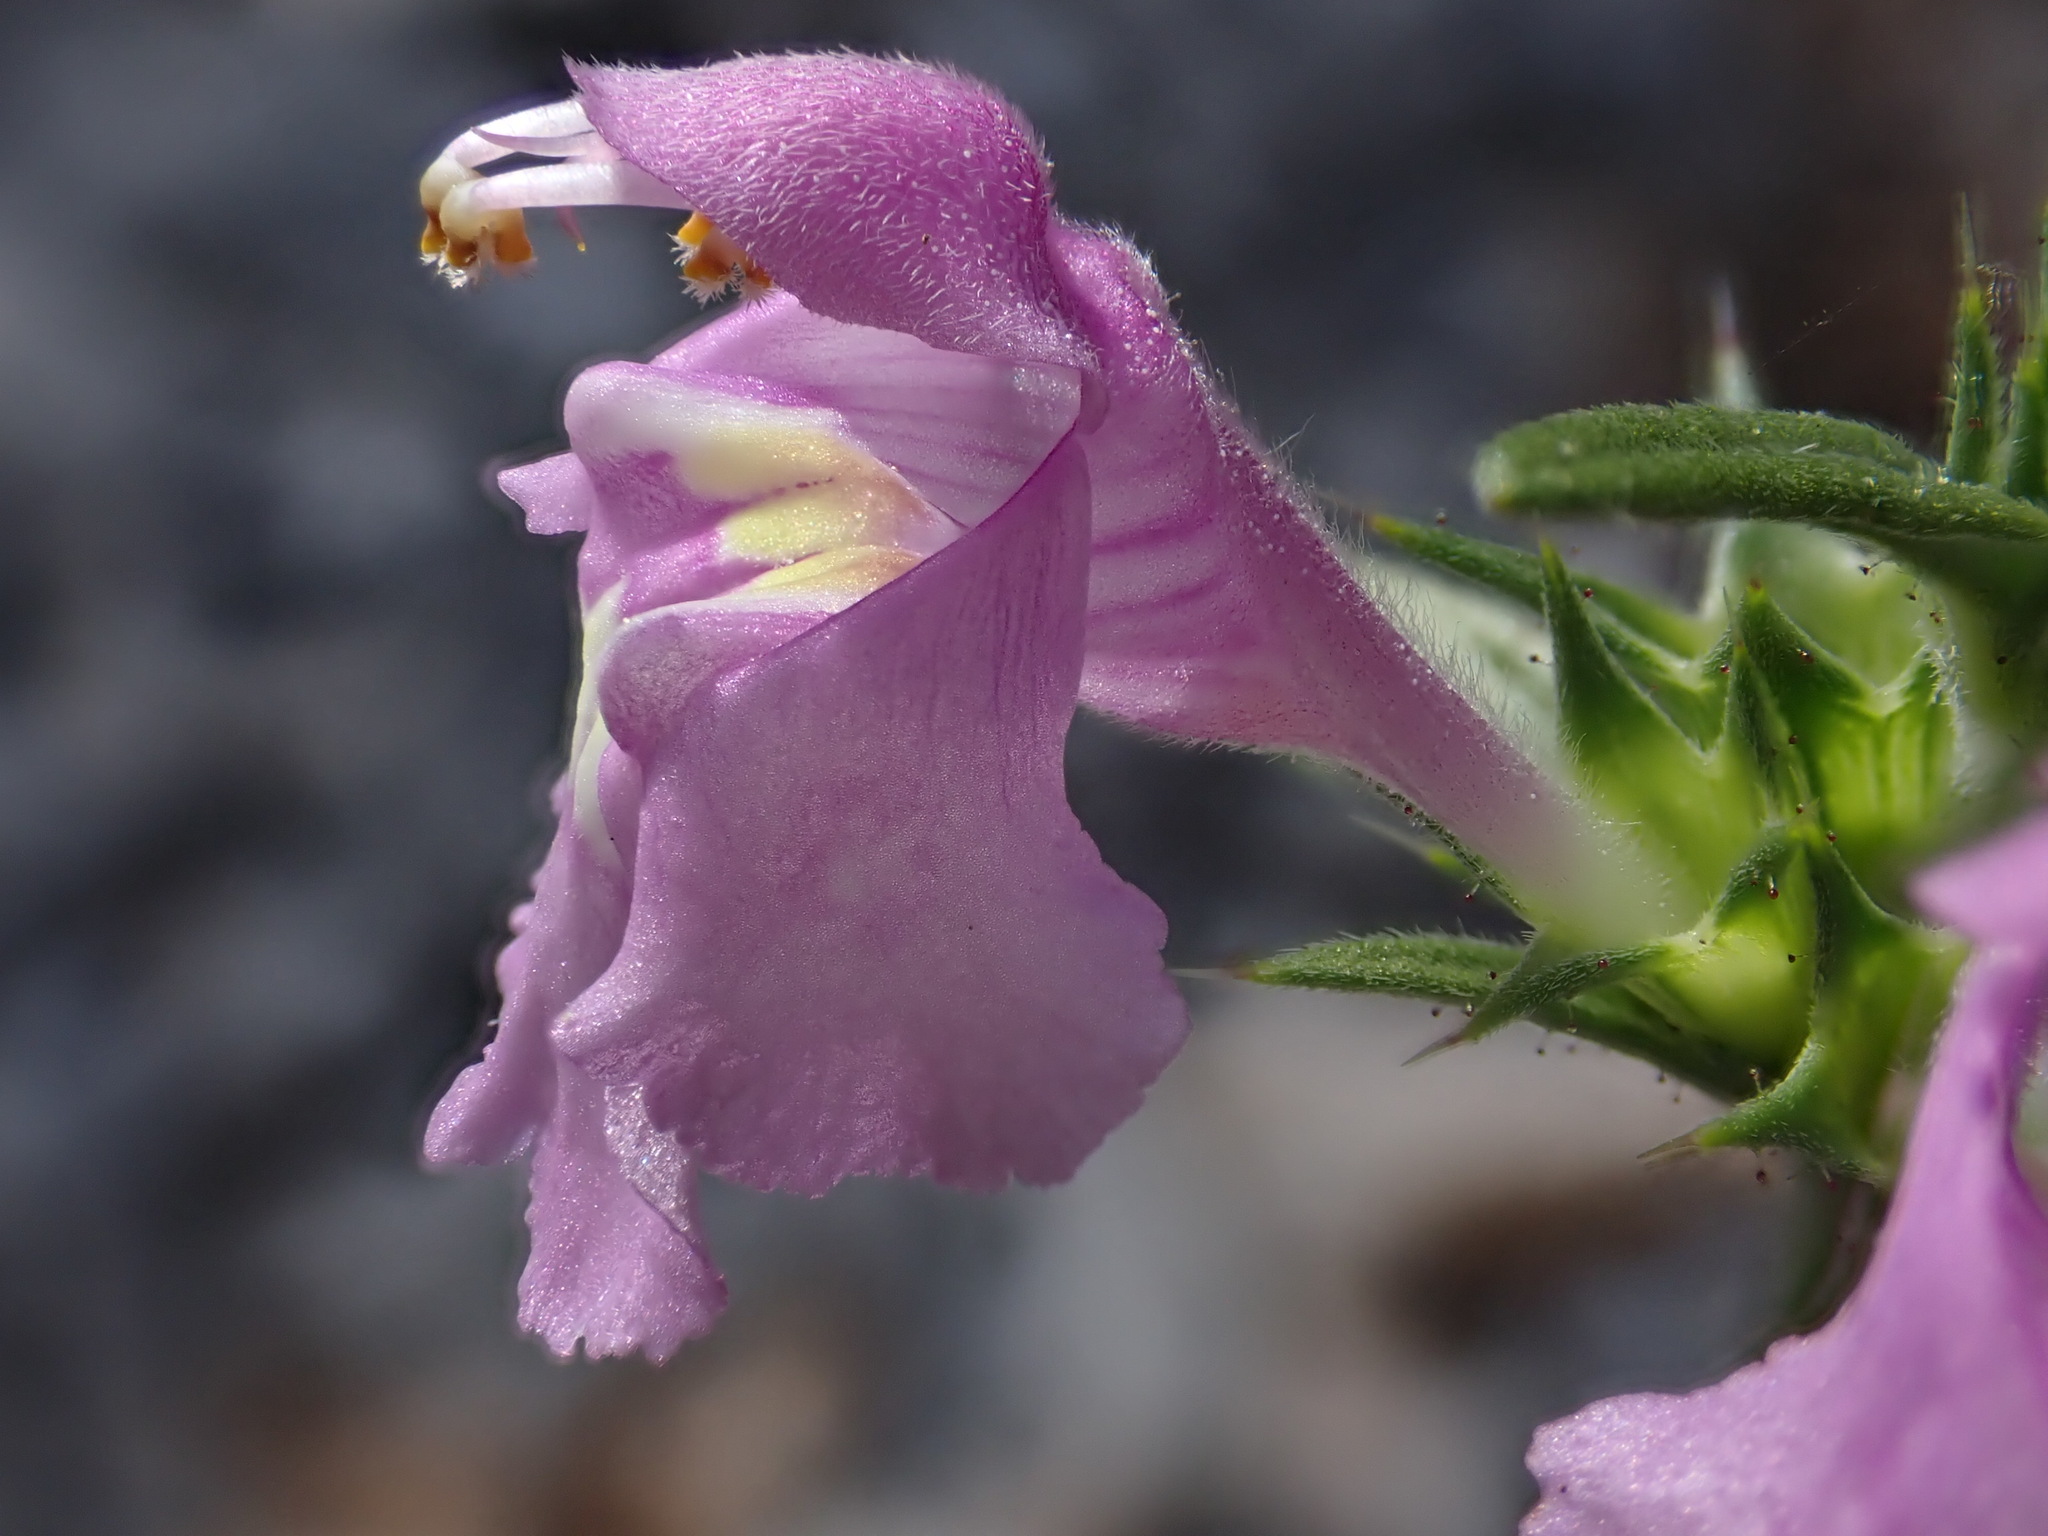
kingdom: Plantae
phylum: Tracheophyta
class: Magnoliopsida
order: Lamiales
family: Lamiaceae
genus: Galeopsis
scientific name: Galeopsis angustifolia
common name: Red hemp-nettle
